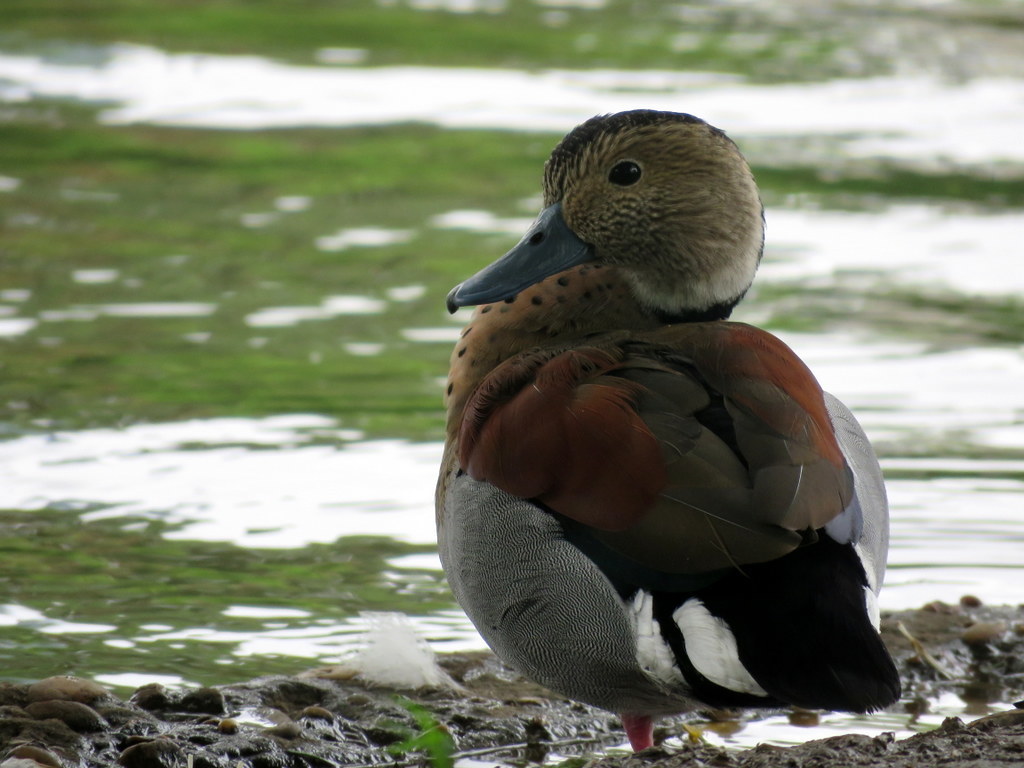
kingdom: Animalia
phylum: Chordata
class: Aves
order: Anseriformes
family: Anatidae
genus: Callonetta
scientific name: Callonetta leucophrys
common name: Ringed teal
